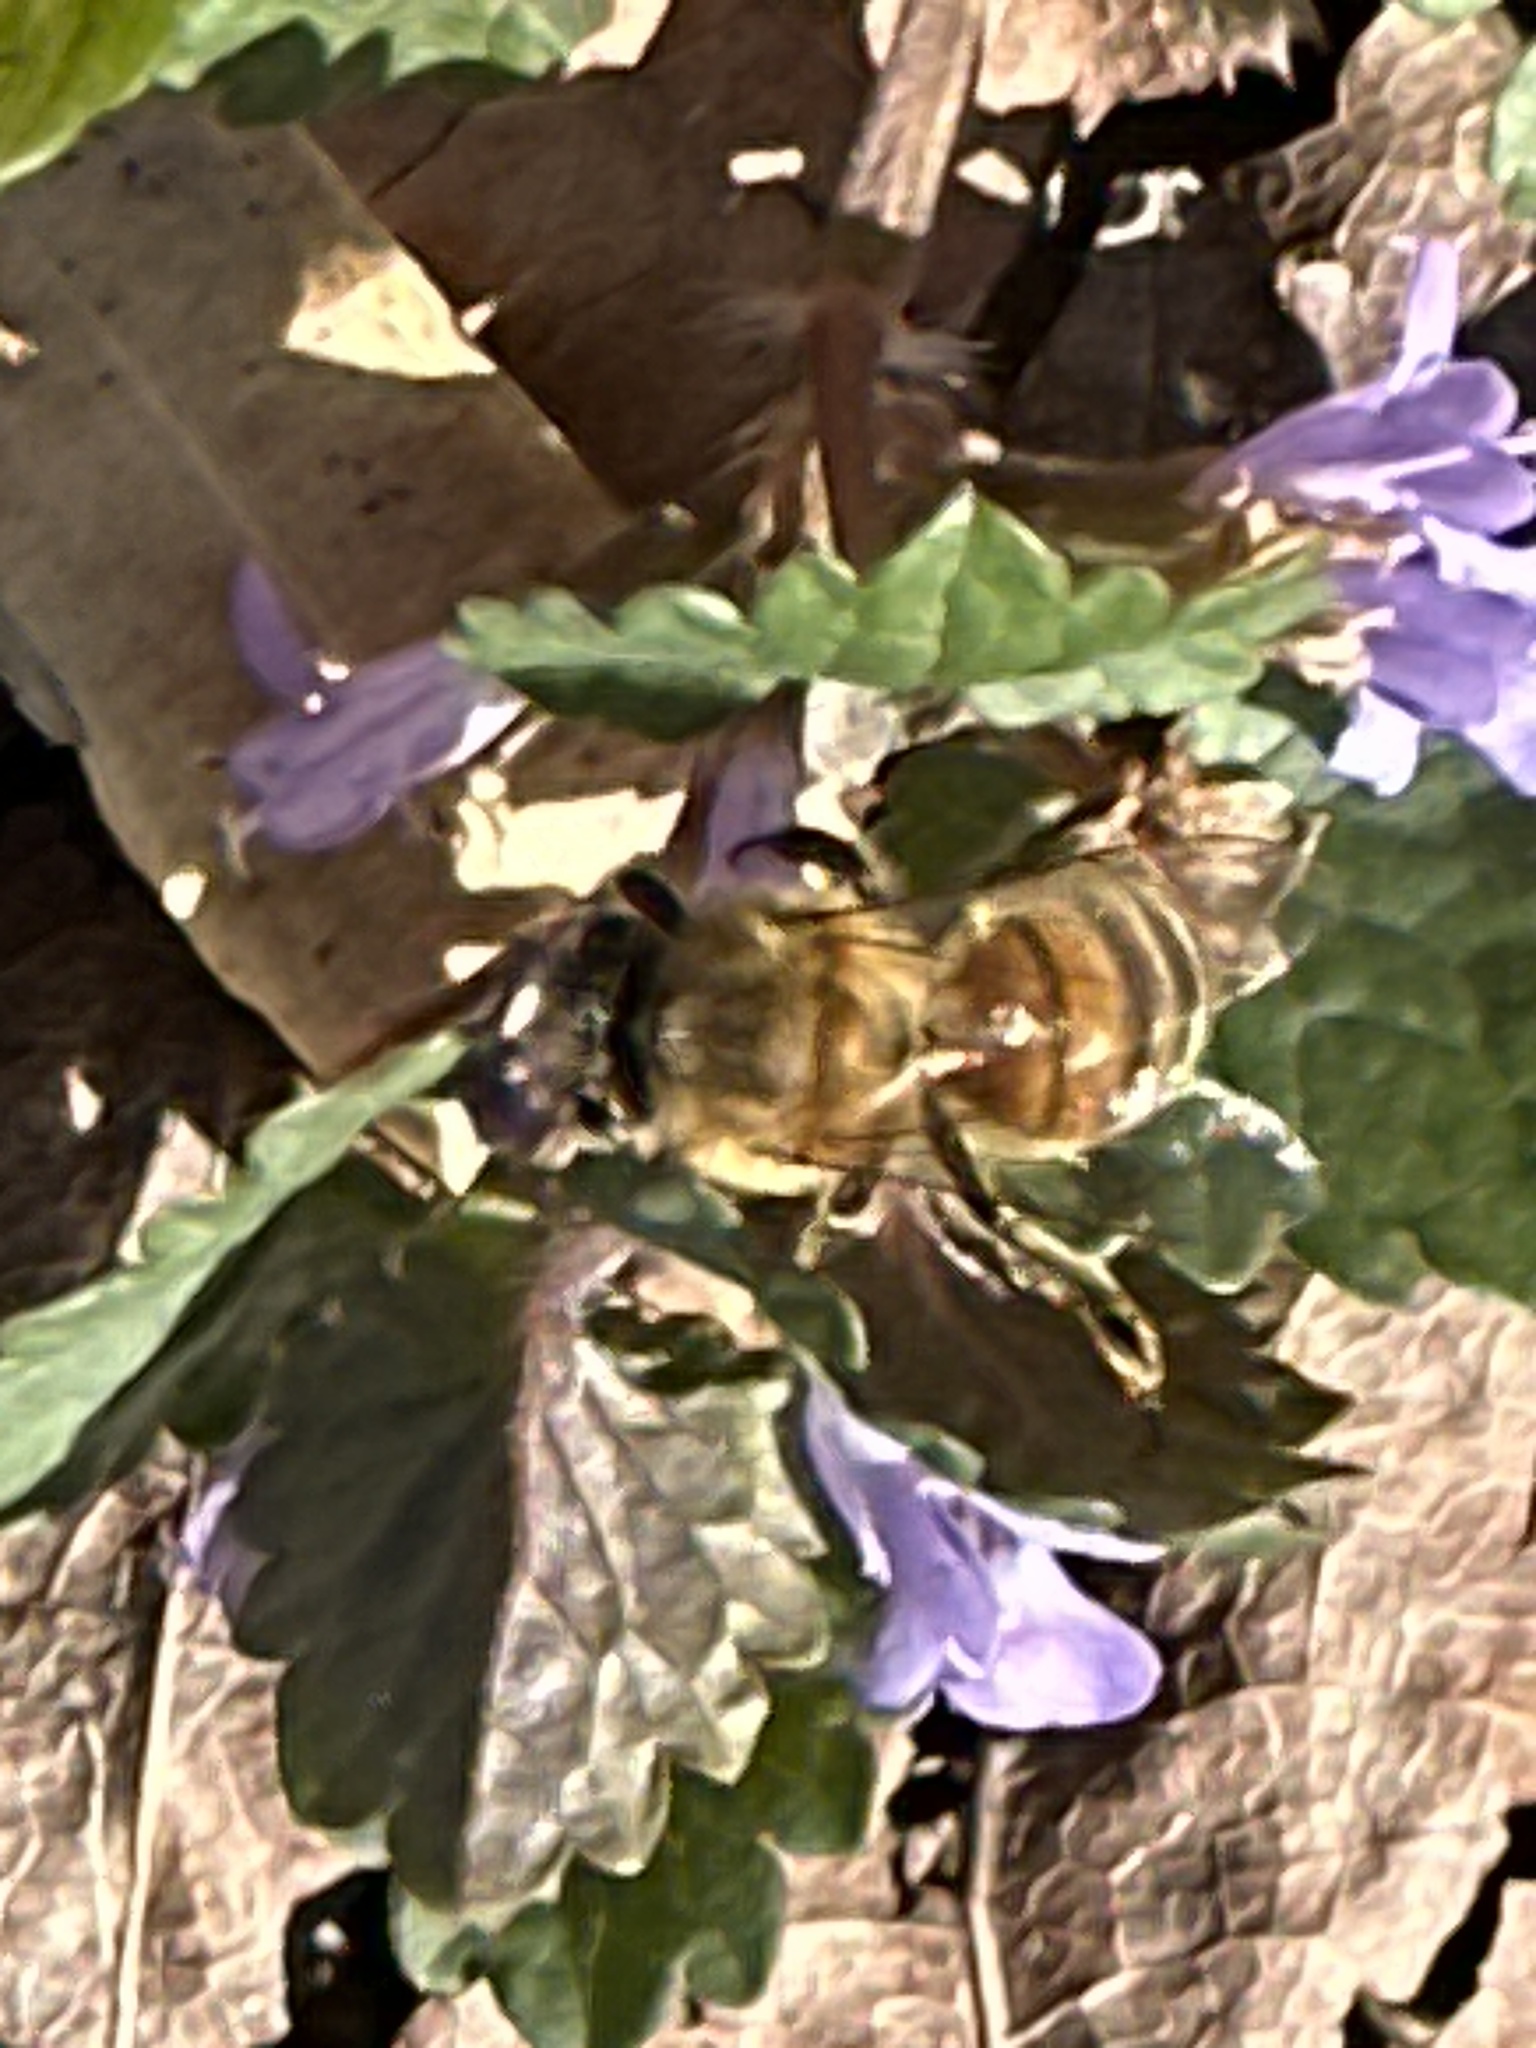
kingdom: Animalia
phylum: Arthropoda
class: Insecta
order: Hymenoptera
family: Apidae
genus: Apis
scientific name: Apis mellifera
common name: Honey bee
